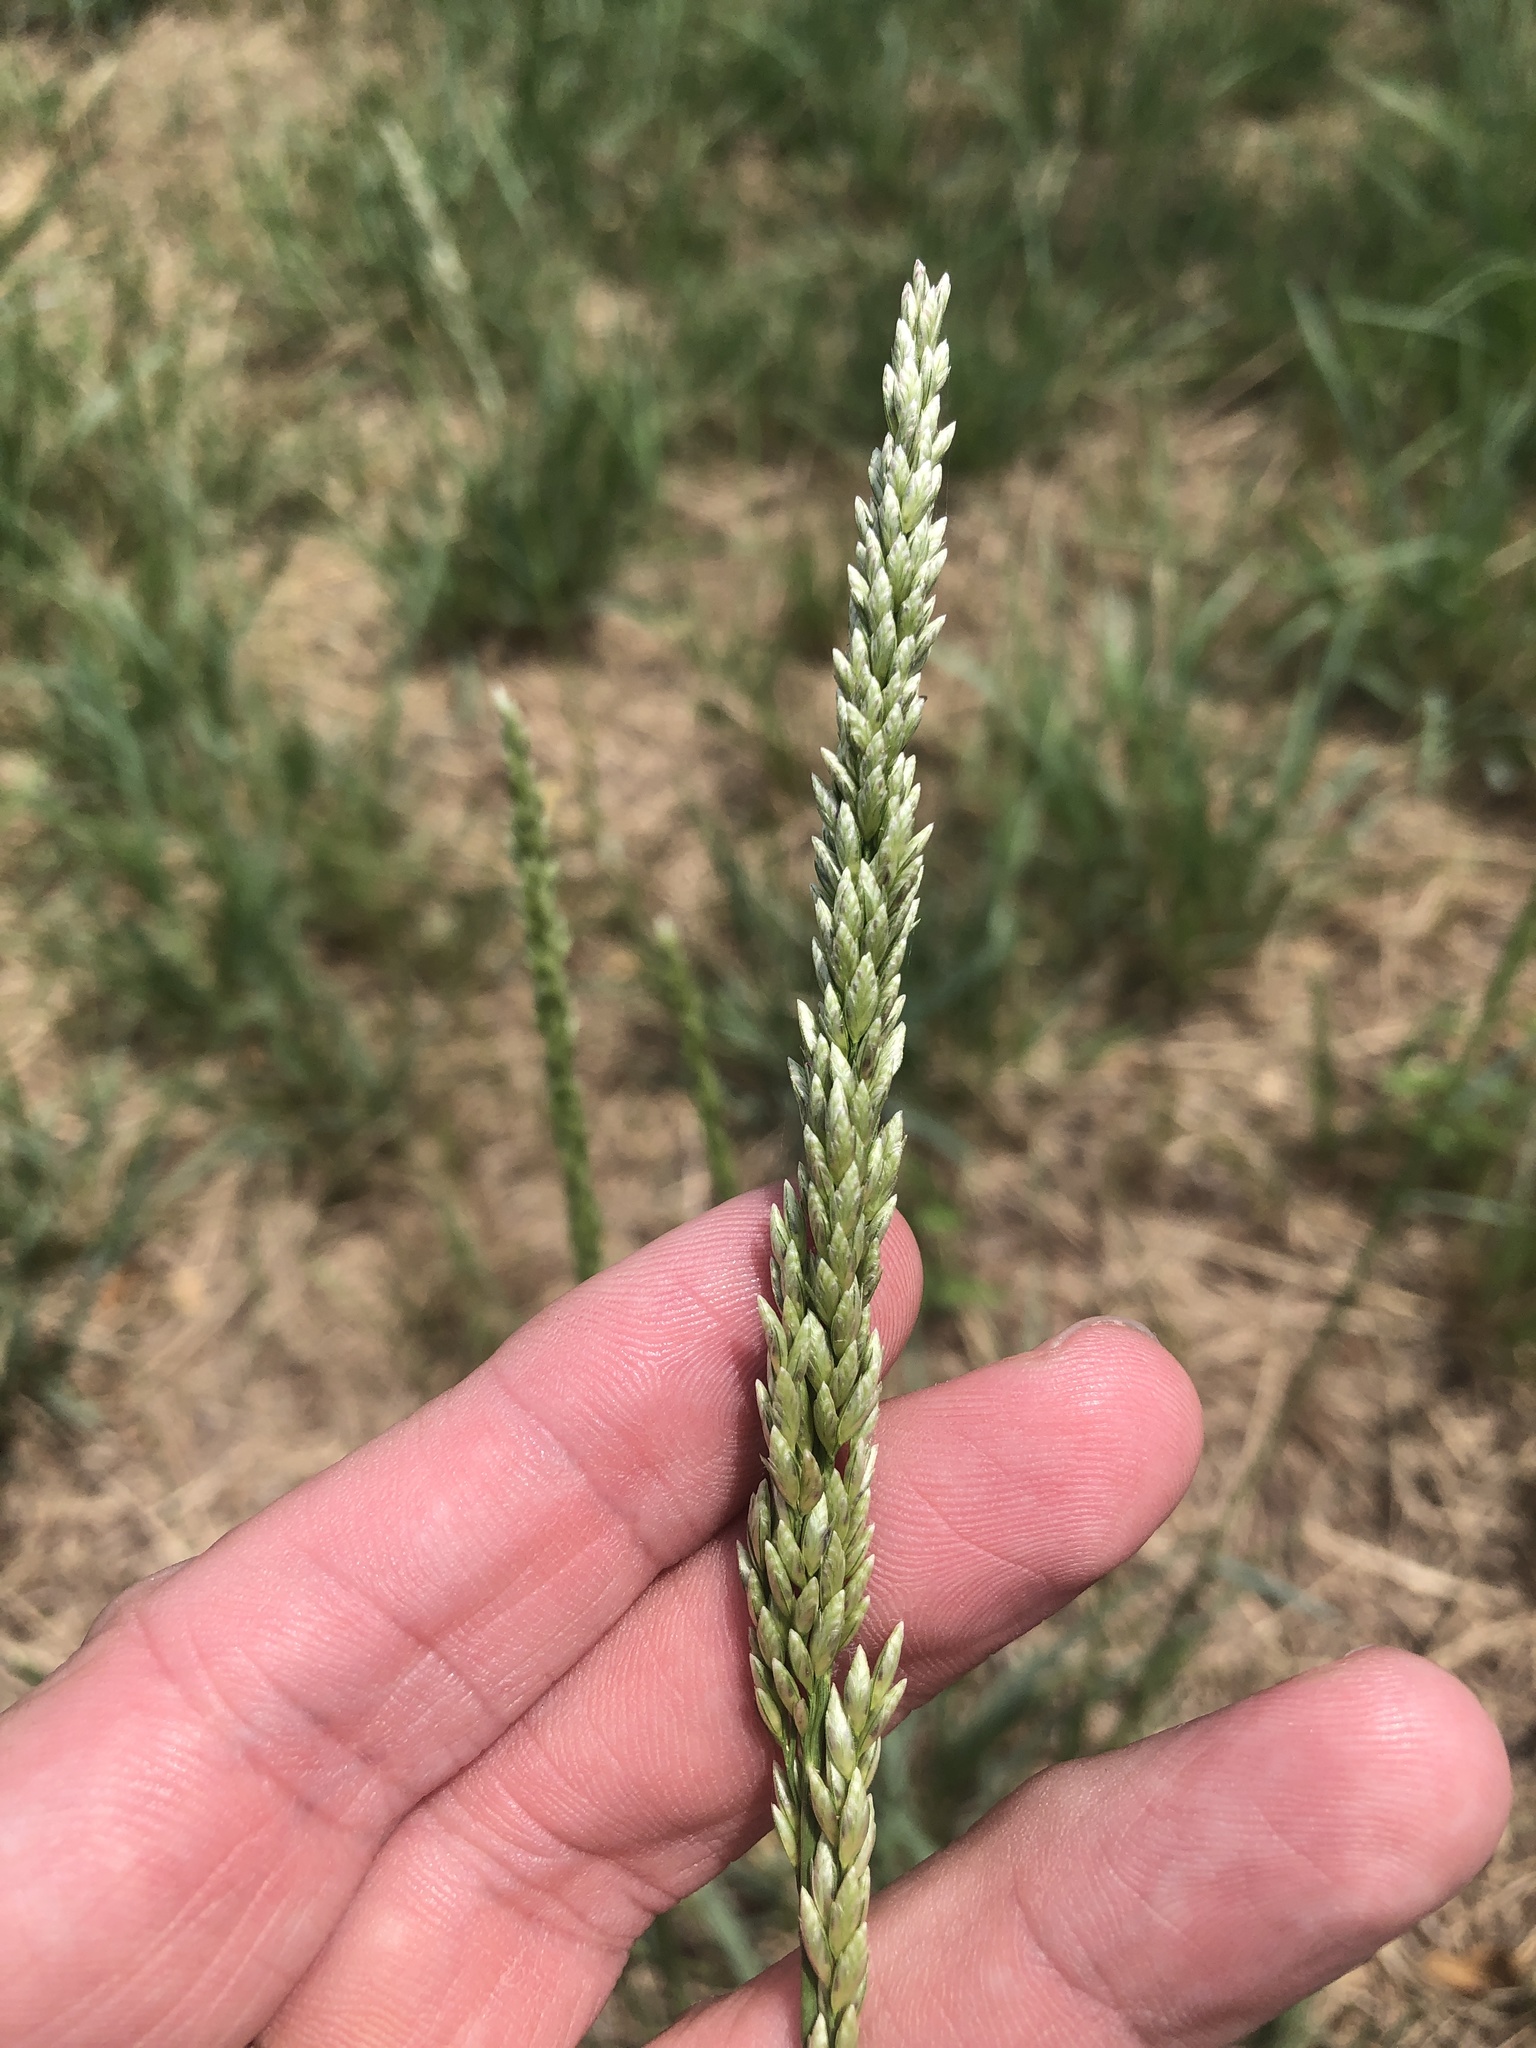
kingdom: Plantae
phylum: Tracheophyta
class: Liliopsida
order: Poales
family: Poaceae
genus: Tridens
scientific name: Tridens albescens
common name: White tridens
